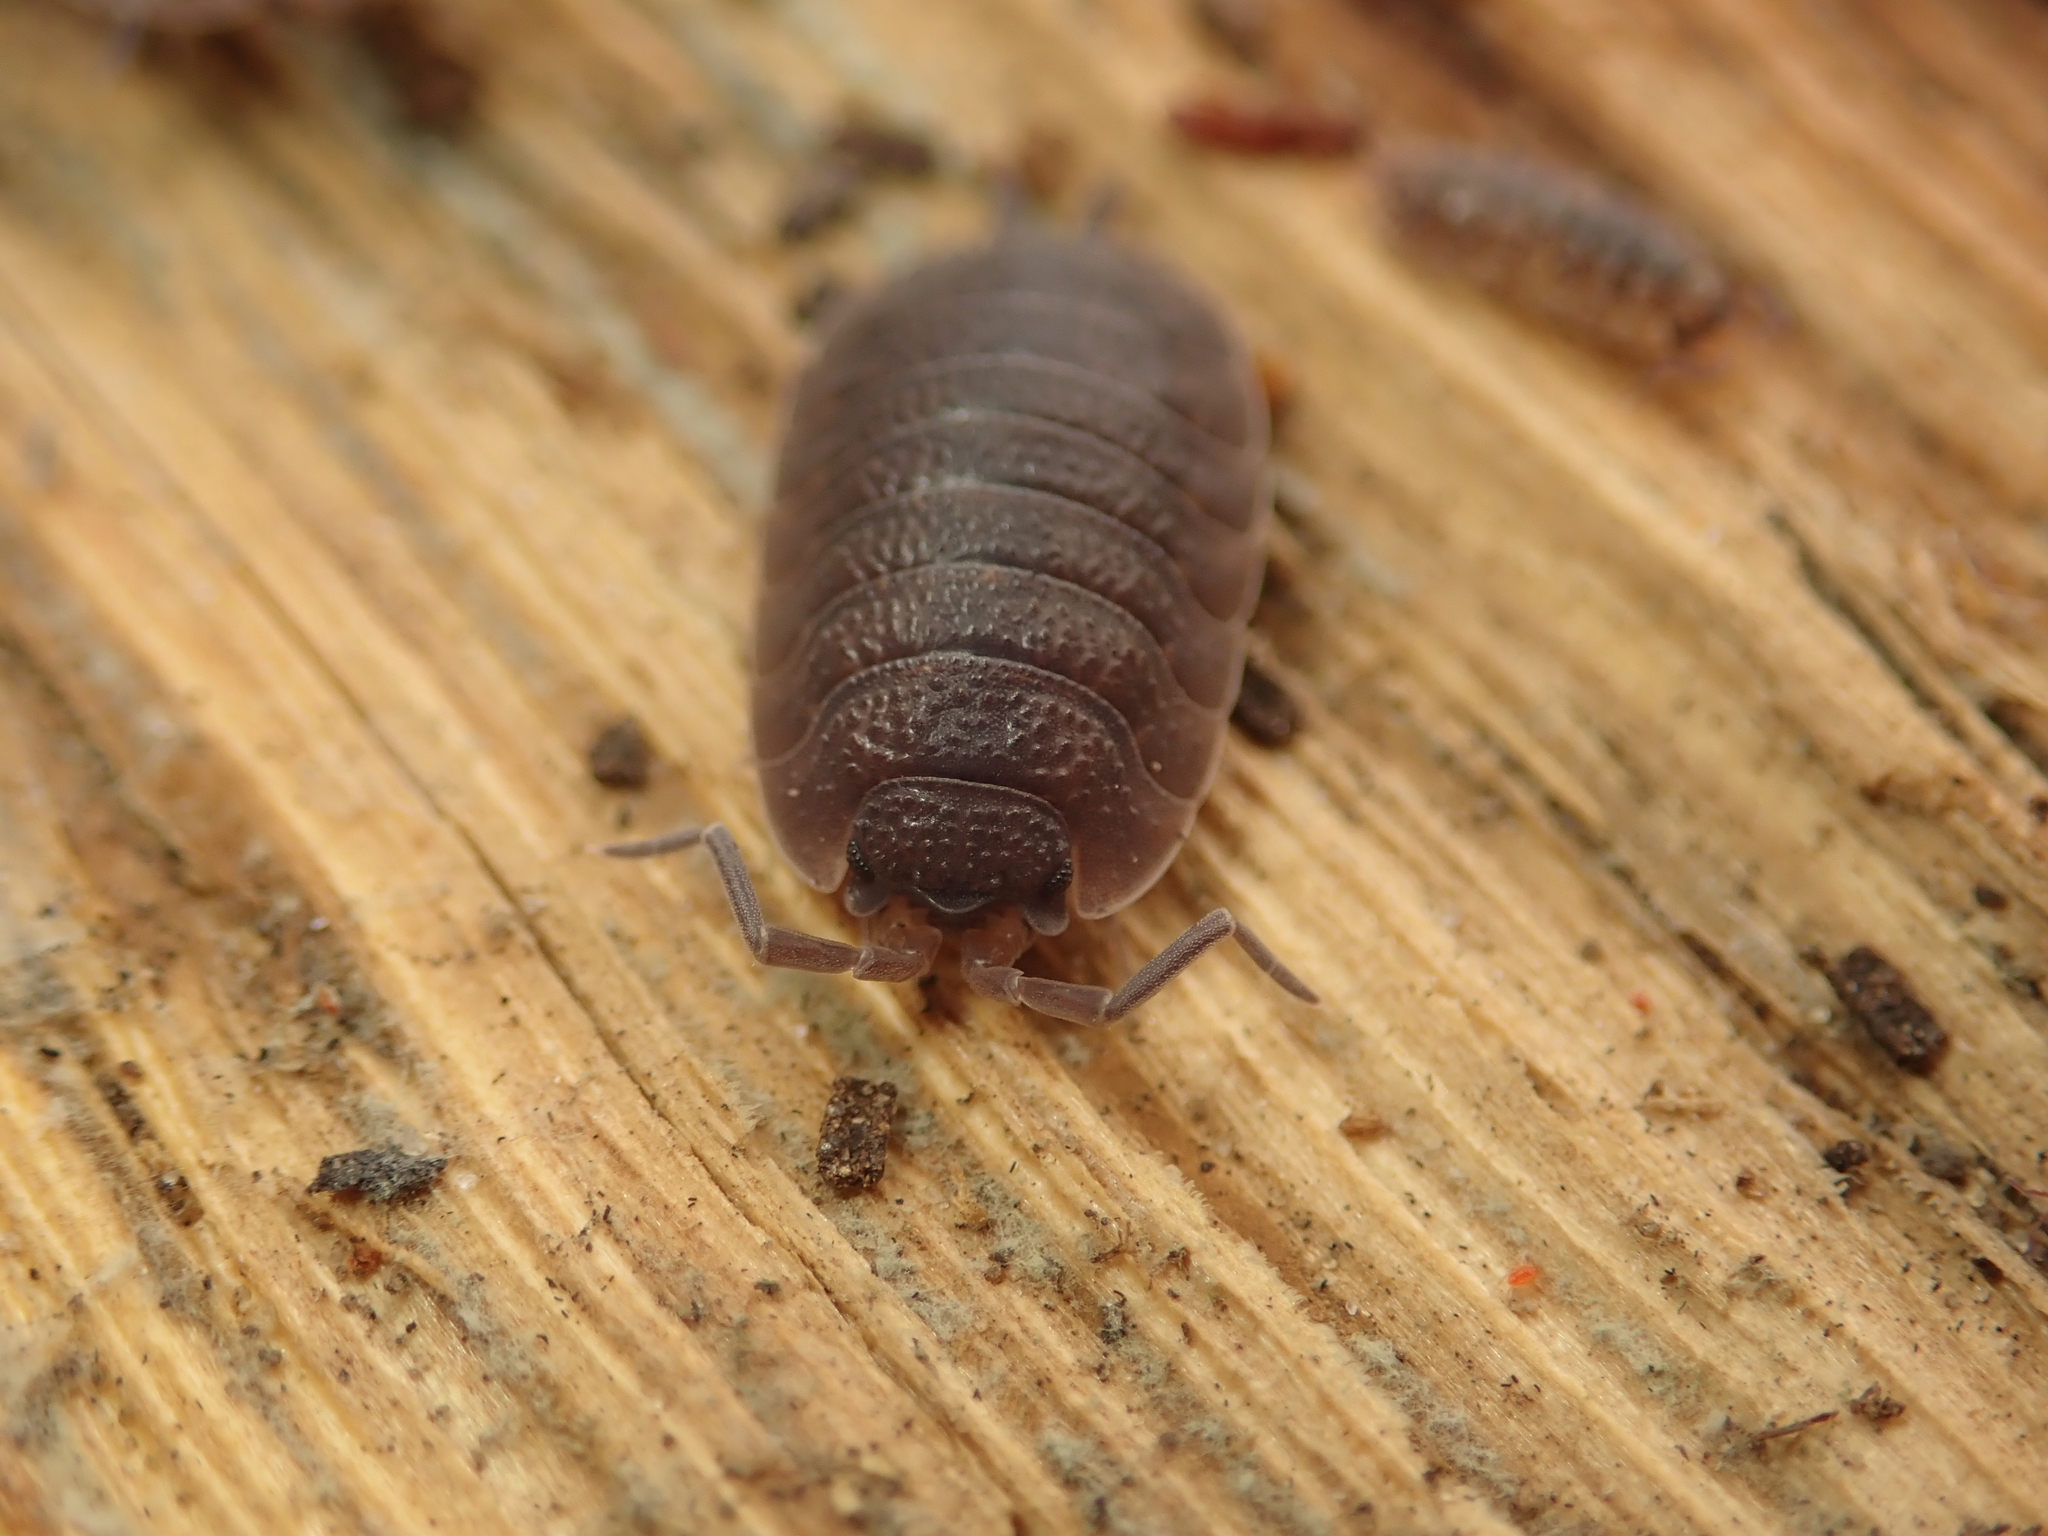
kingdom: Animalia
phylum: Arthropoda
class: Malacostraca
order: Isopoda
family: Porcellionidae
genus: Porcellio
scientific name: Porcellio scaber
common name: Common rough woodlouse
